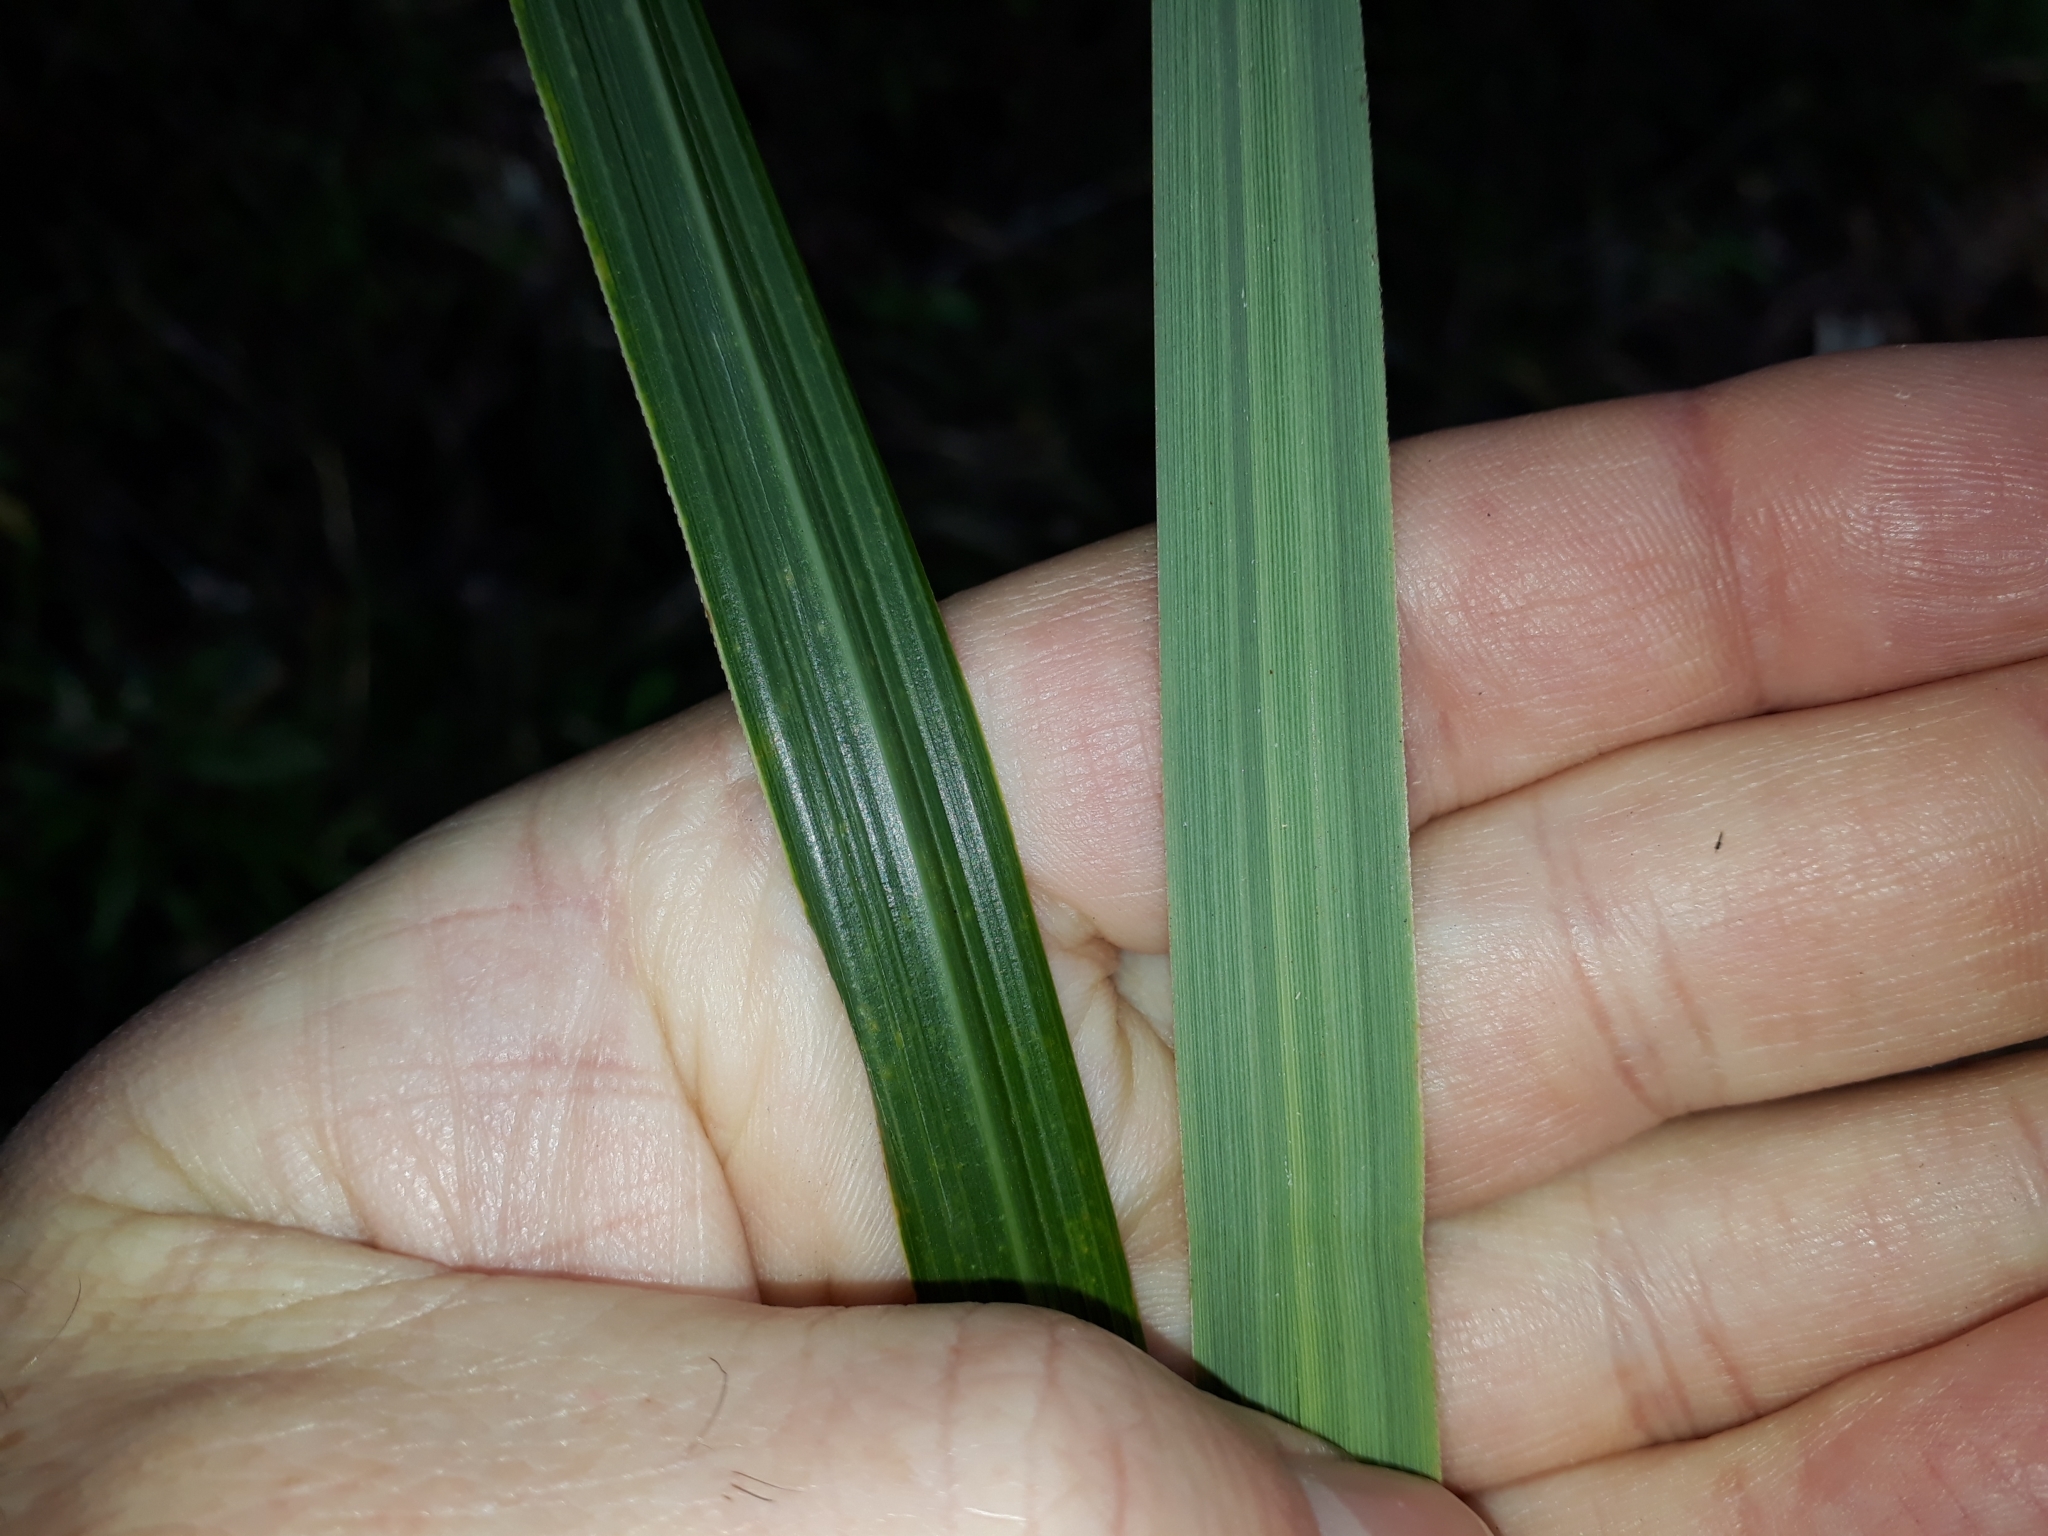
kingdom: Plantae
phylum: Tracheophyta
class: Liliopsida
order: Poales
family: Poaceae
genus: Miscanthus
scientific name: Miscanthus nepalensis
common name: Nepal silver grass
